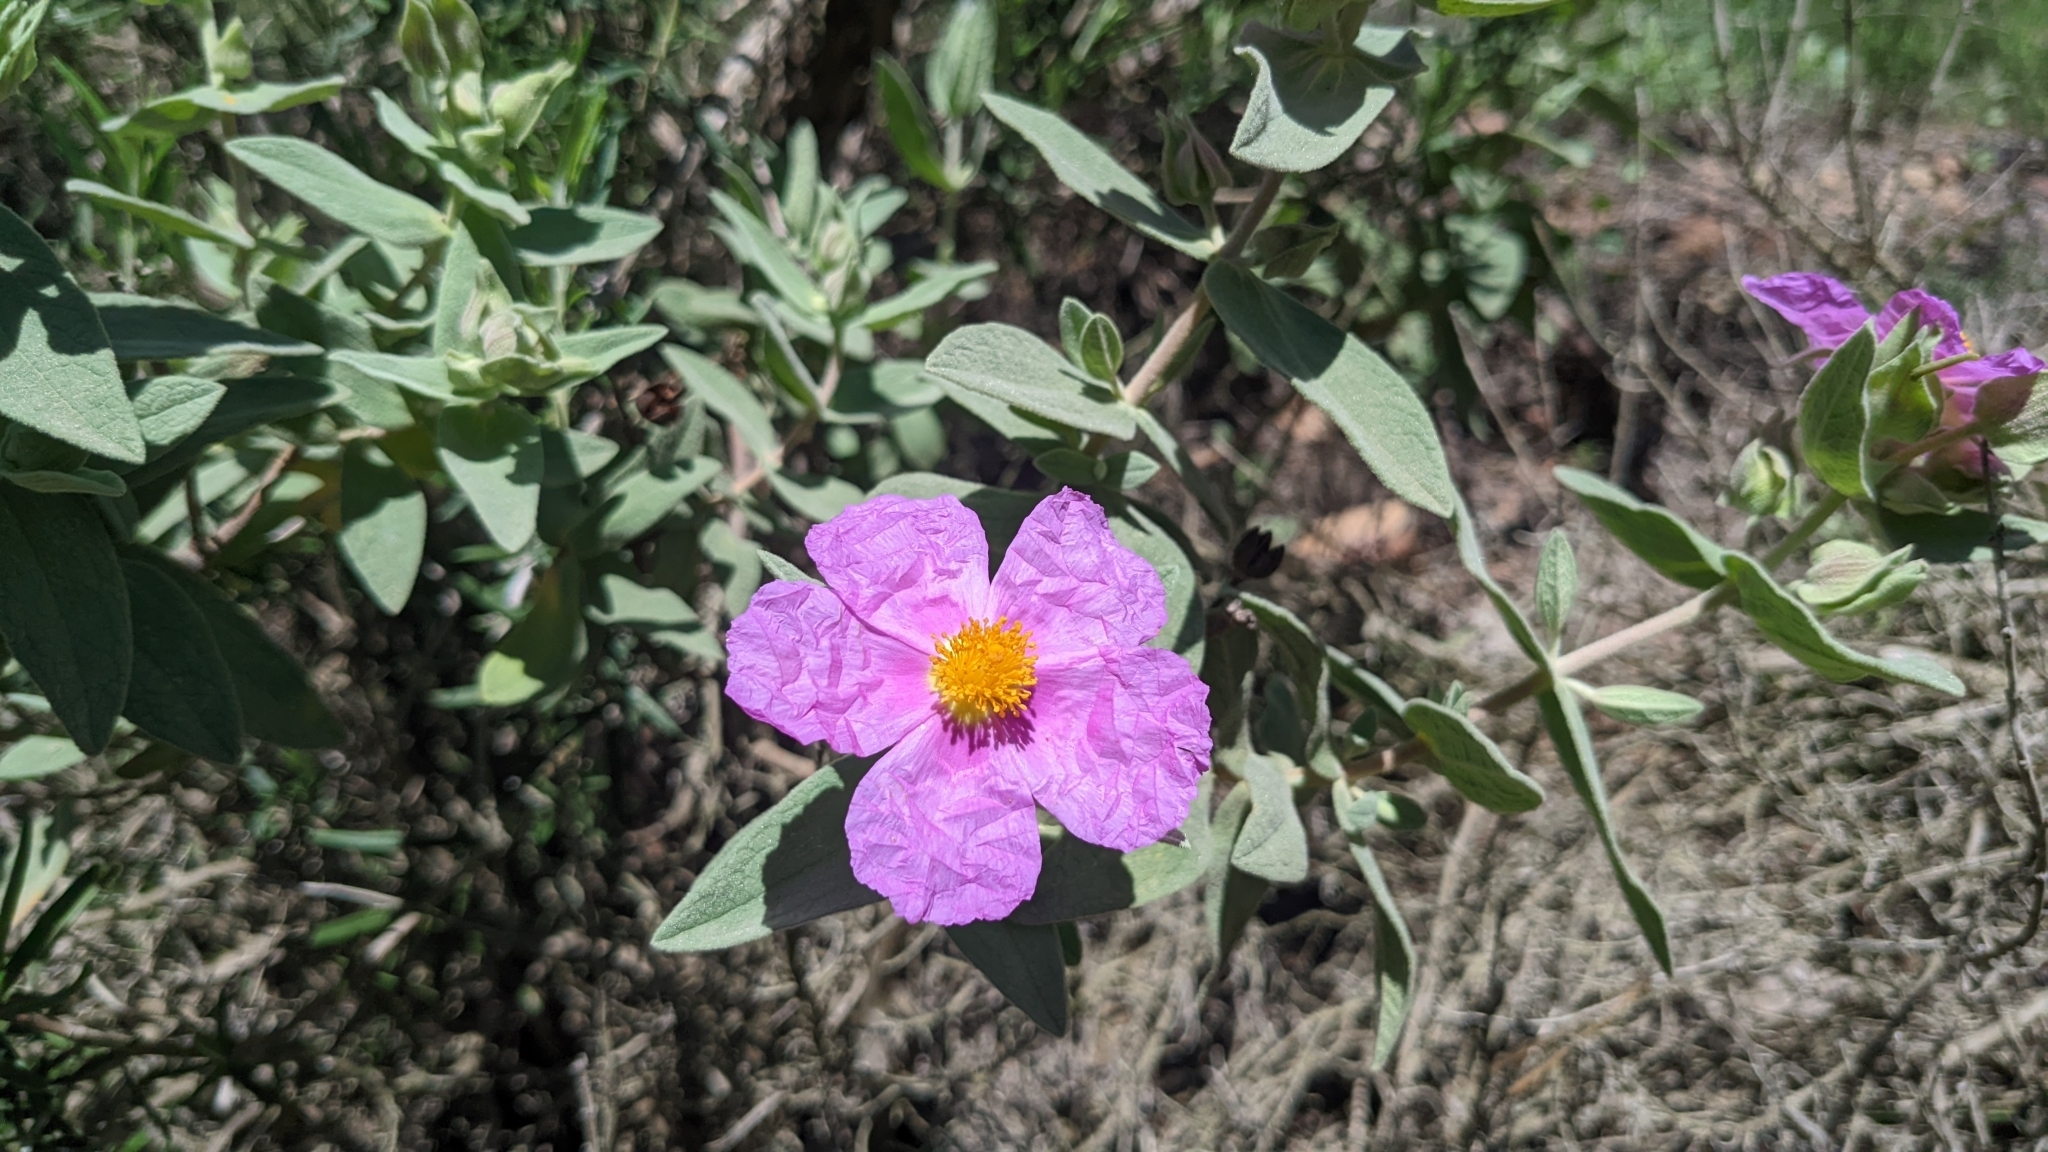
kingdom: Plantae
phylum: Tracheophyta
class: Magnoliopsida
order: Malvales
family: Cistaceae
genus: Cistus
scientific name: Cistus albidus
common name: White-leaf rock-rose
